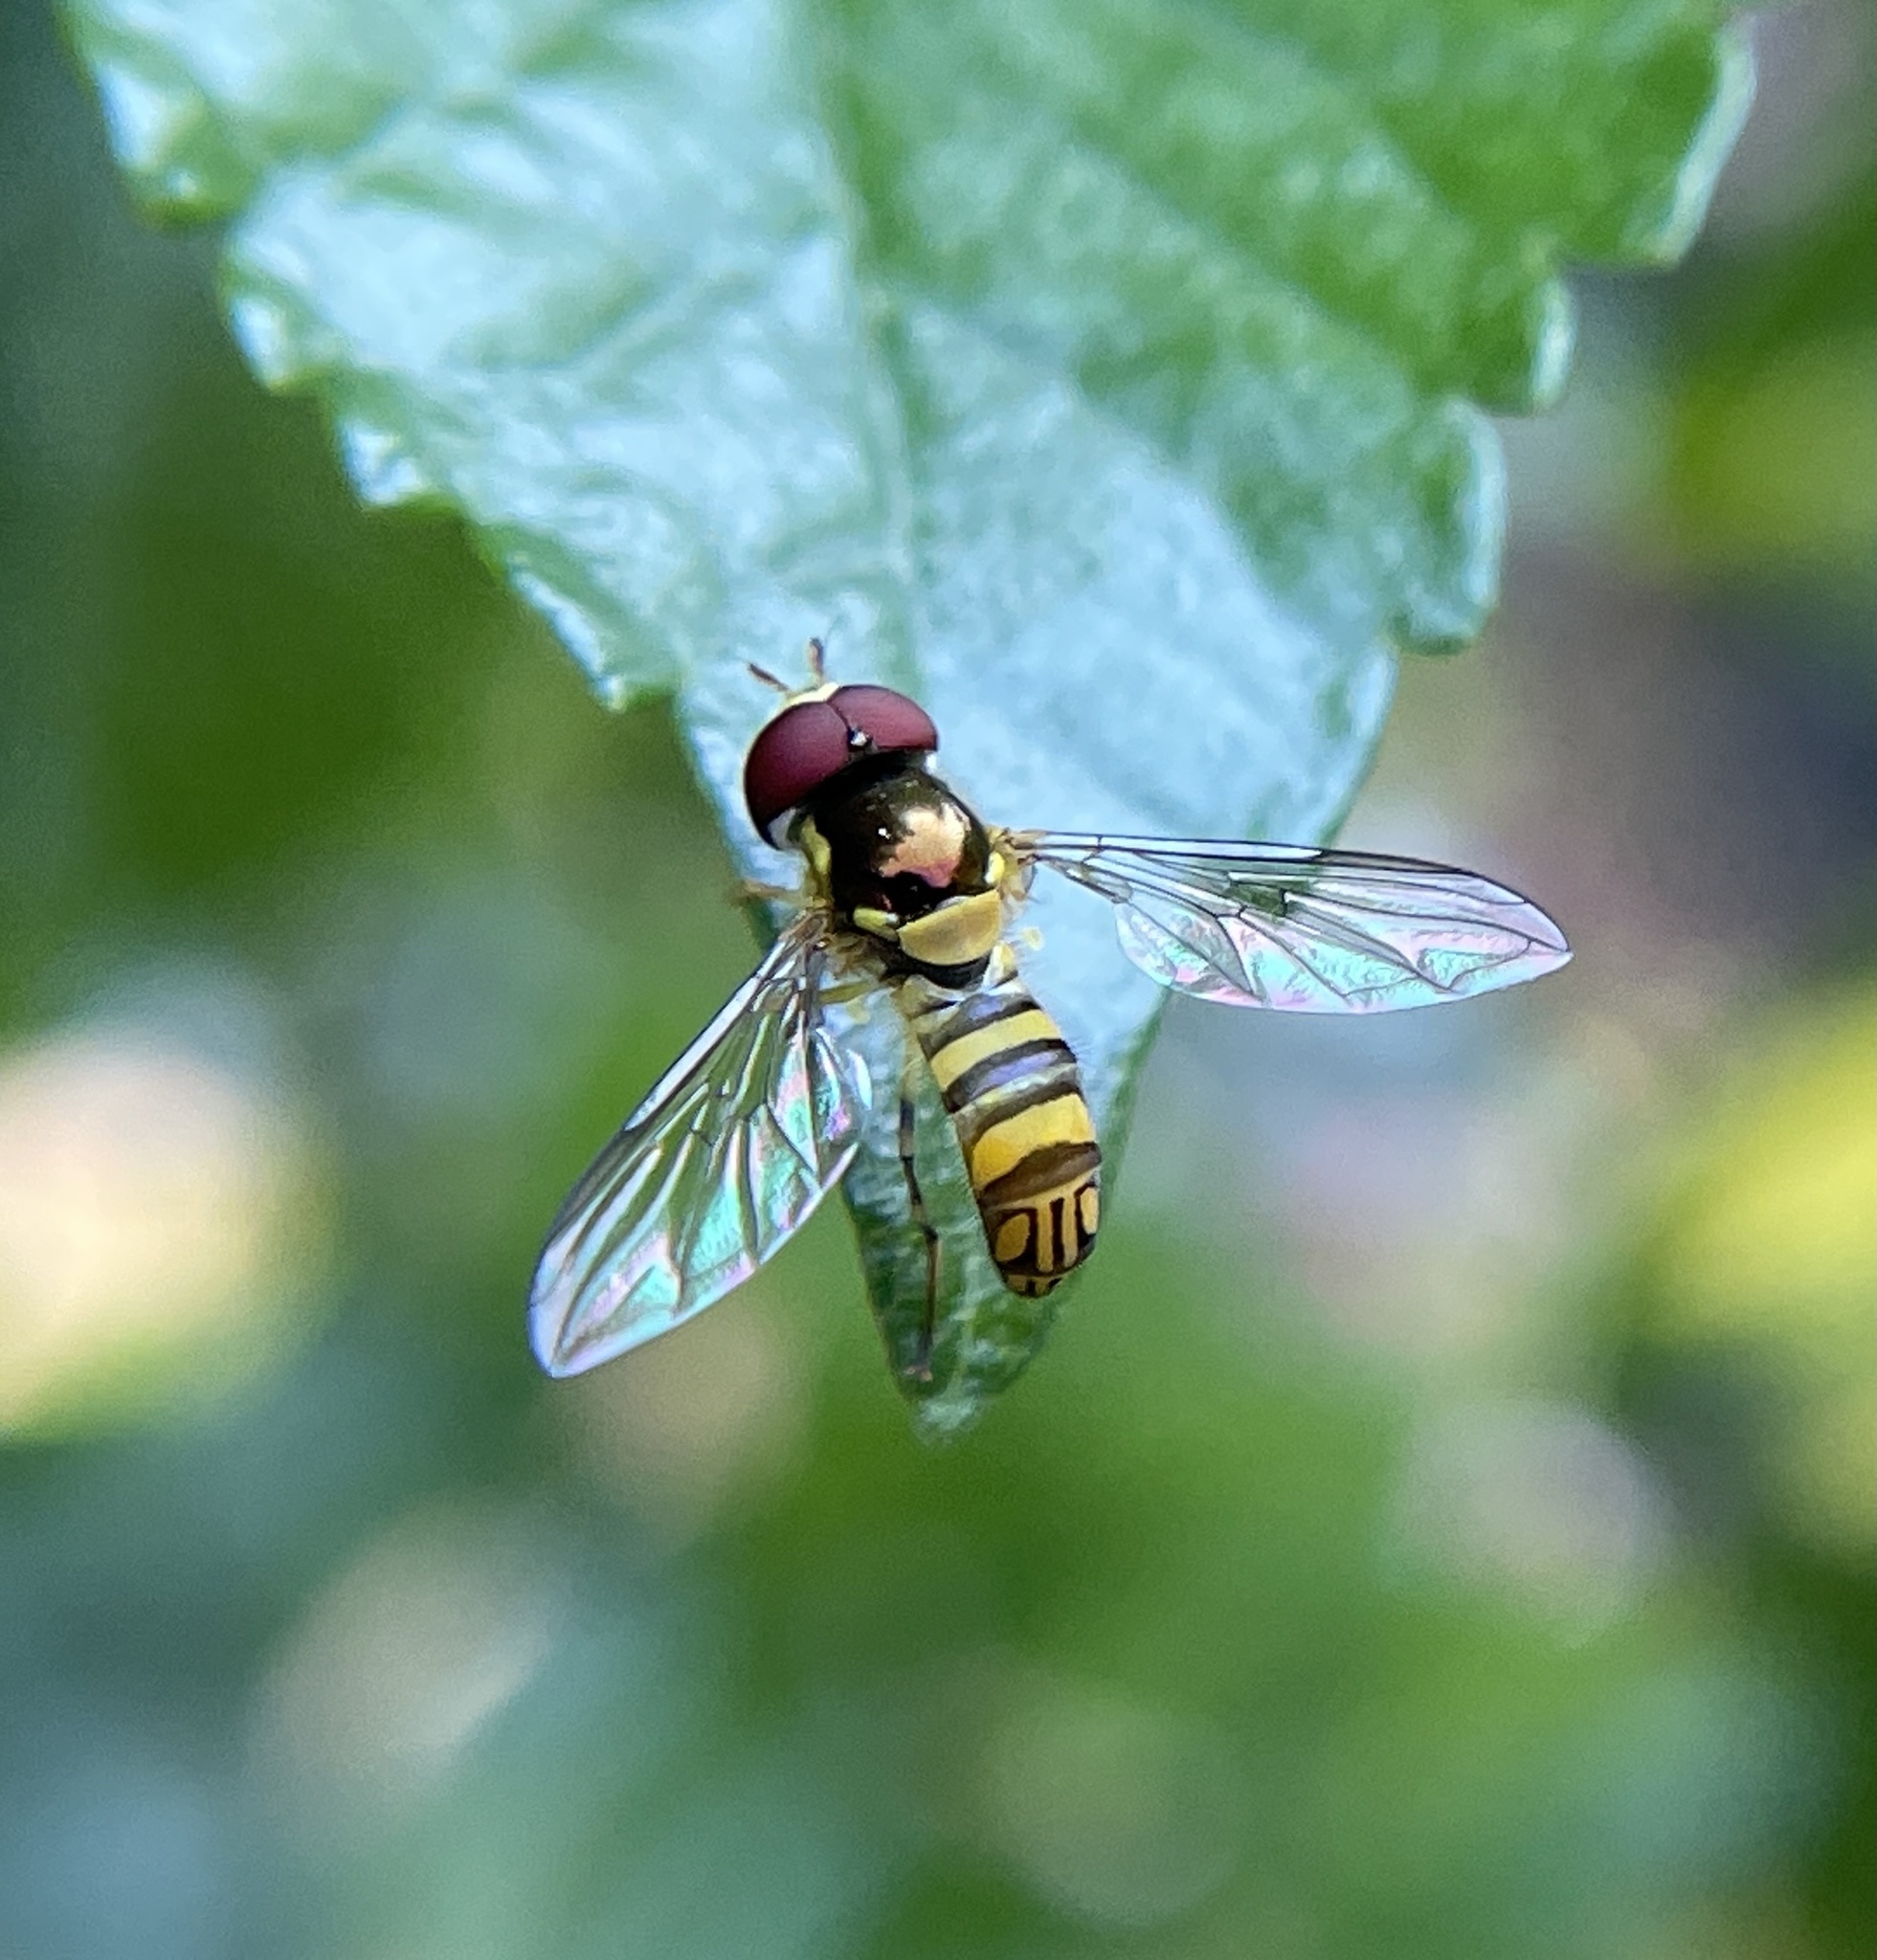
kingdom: Animalia
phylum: Arthropoda
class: Insecta
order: Diptera
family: Syrphidae
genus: Allograpta
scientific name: Allograpta obliqua
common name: Common oblique syrphid
